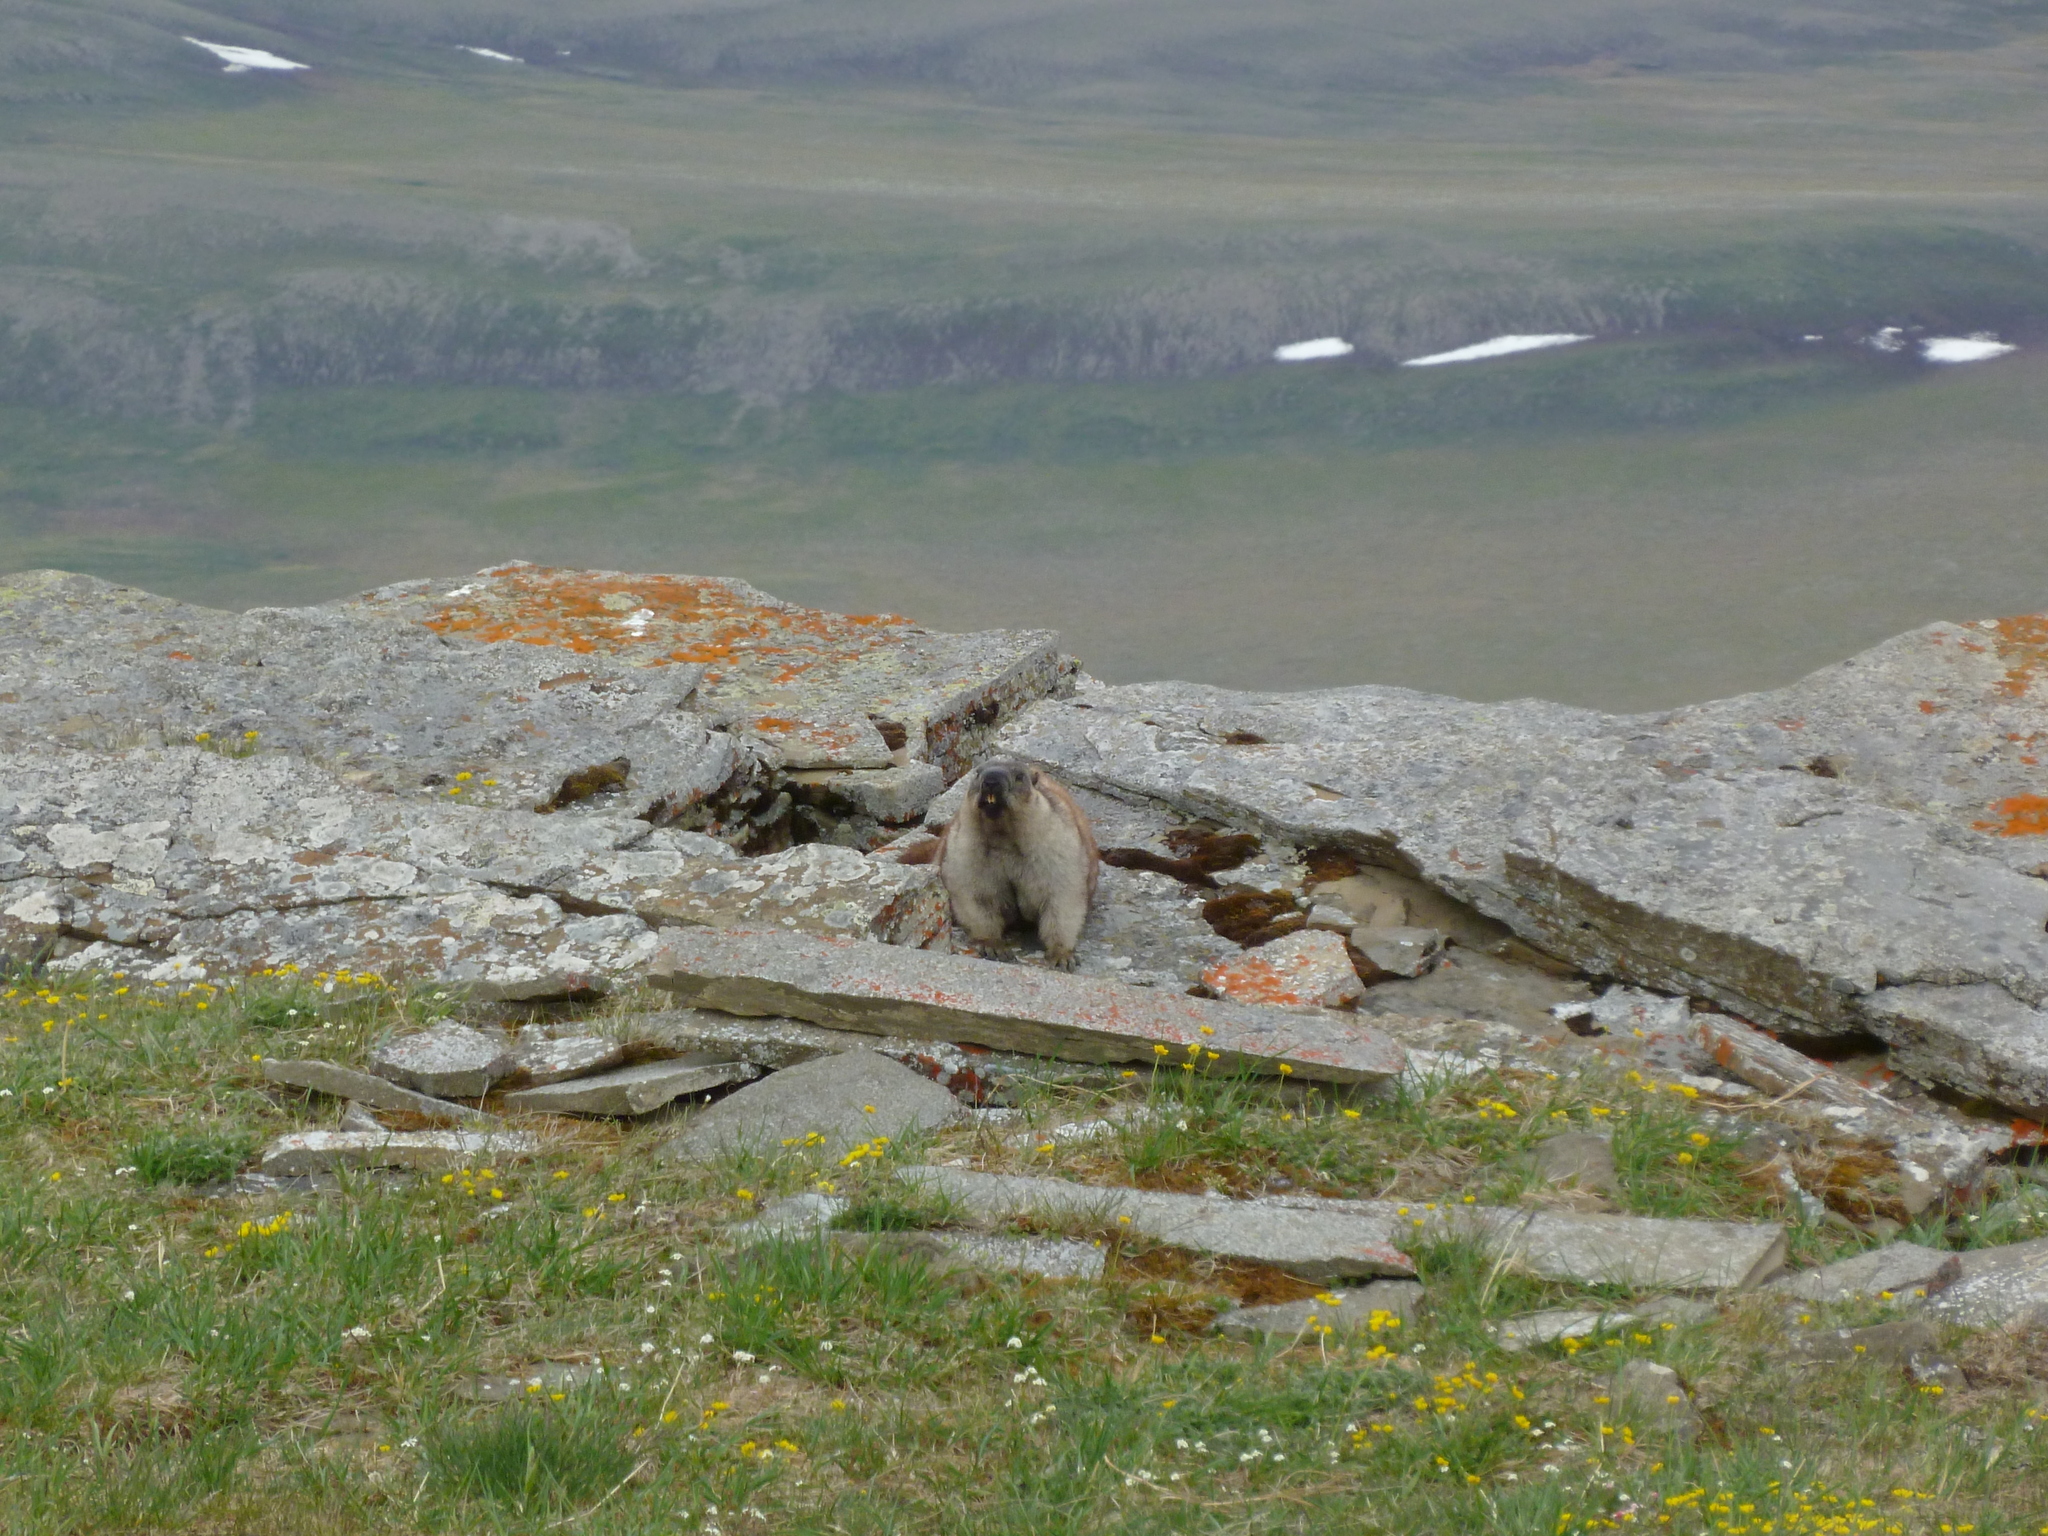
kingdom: Animalia
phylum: Chordata
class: Mammalia
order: Rodentia
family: Sciuridae
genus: Marmota
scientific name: Marmota broweri
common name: Alaska marmot
